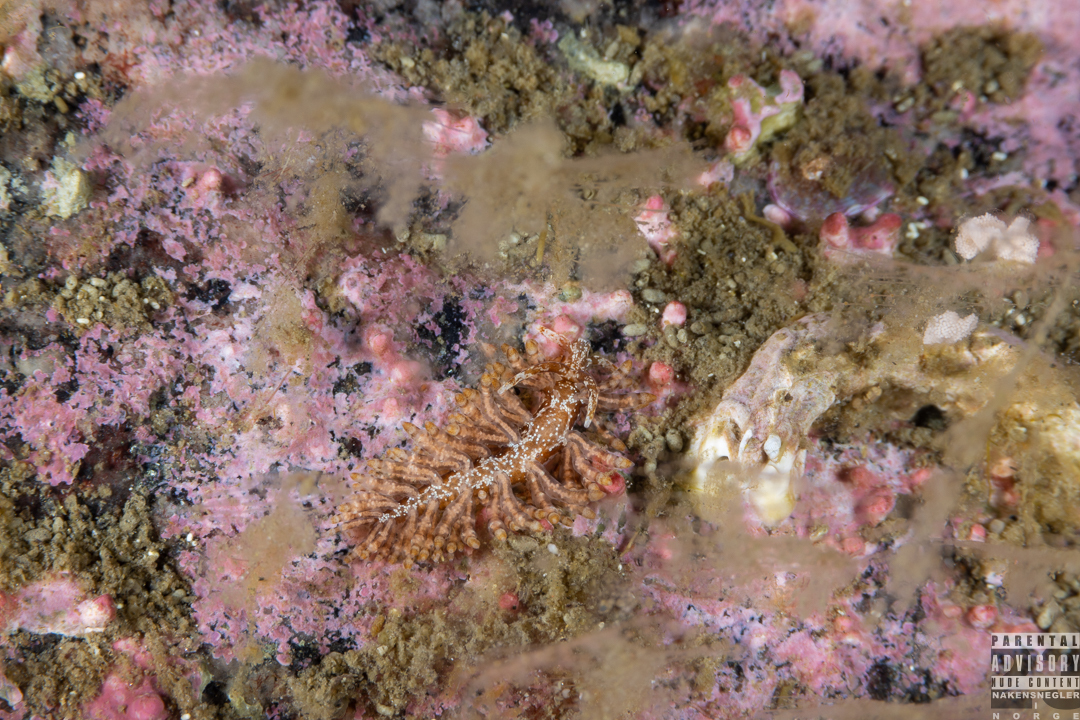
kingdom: Animalia
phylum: Mollusca
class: Gastropoda
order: Nudibranchia
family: Eubranchidae
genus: Eubranchus
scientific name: Eubranchus vittatus
